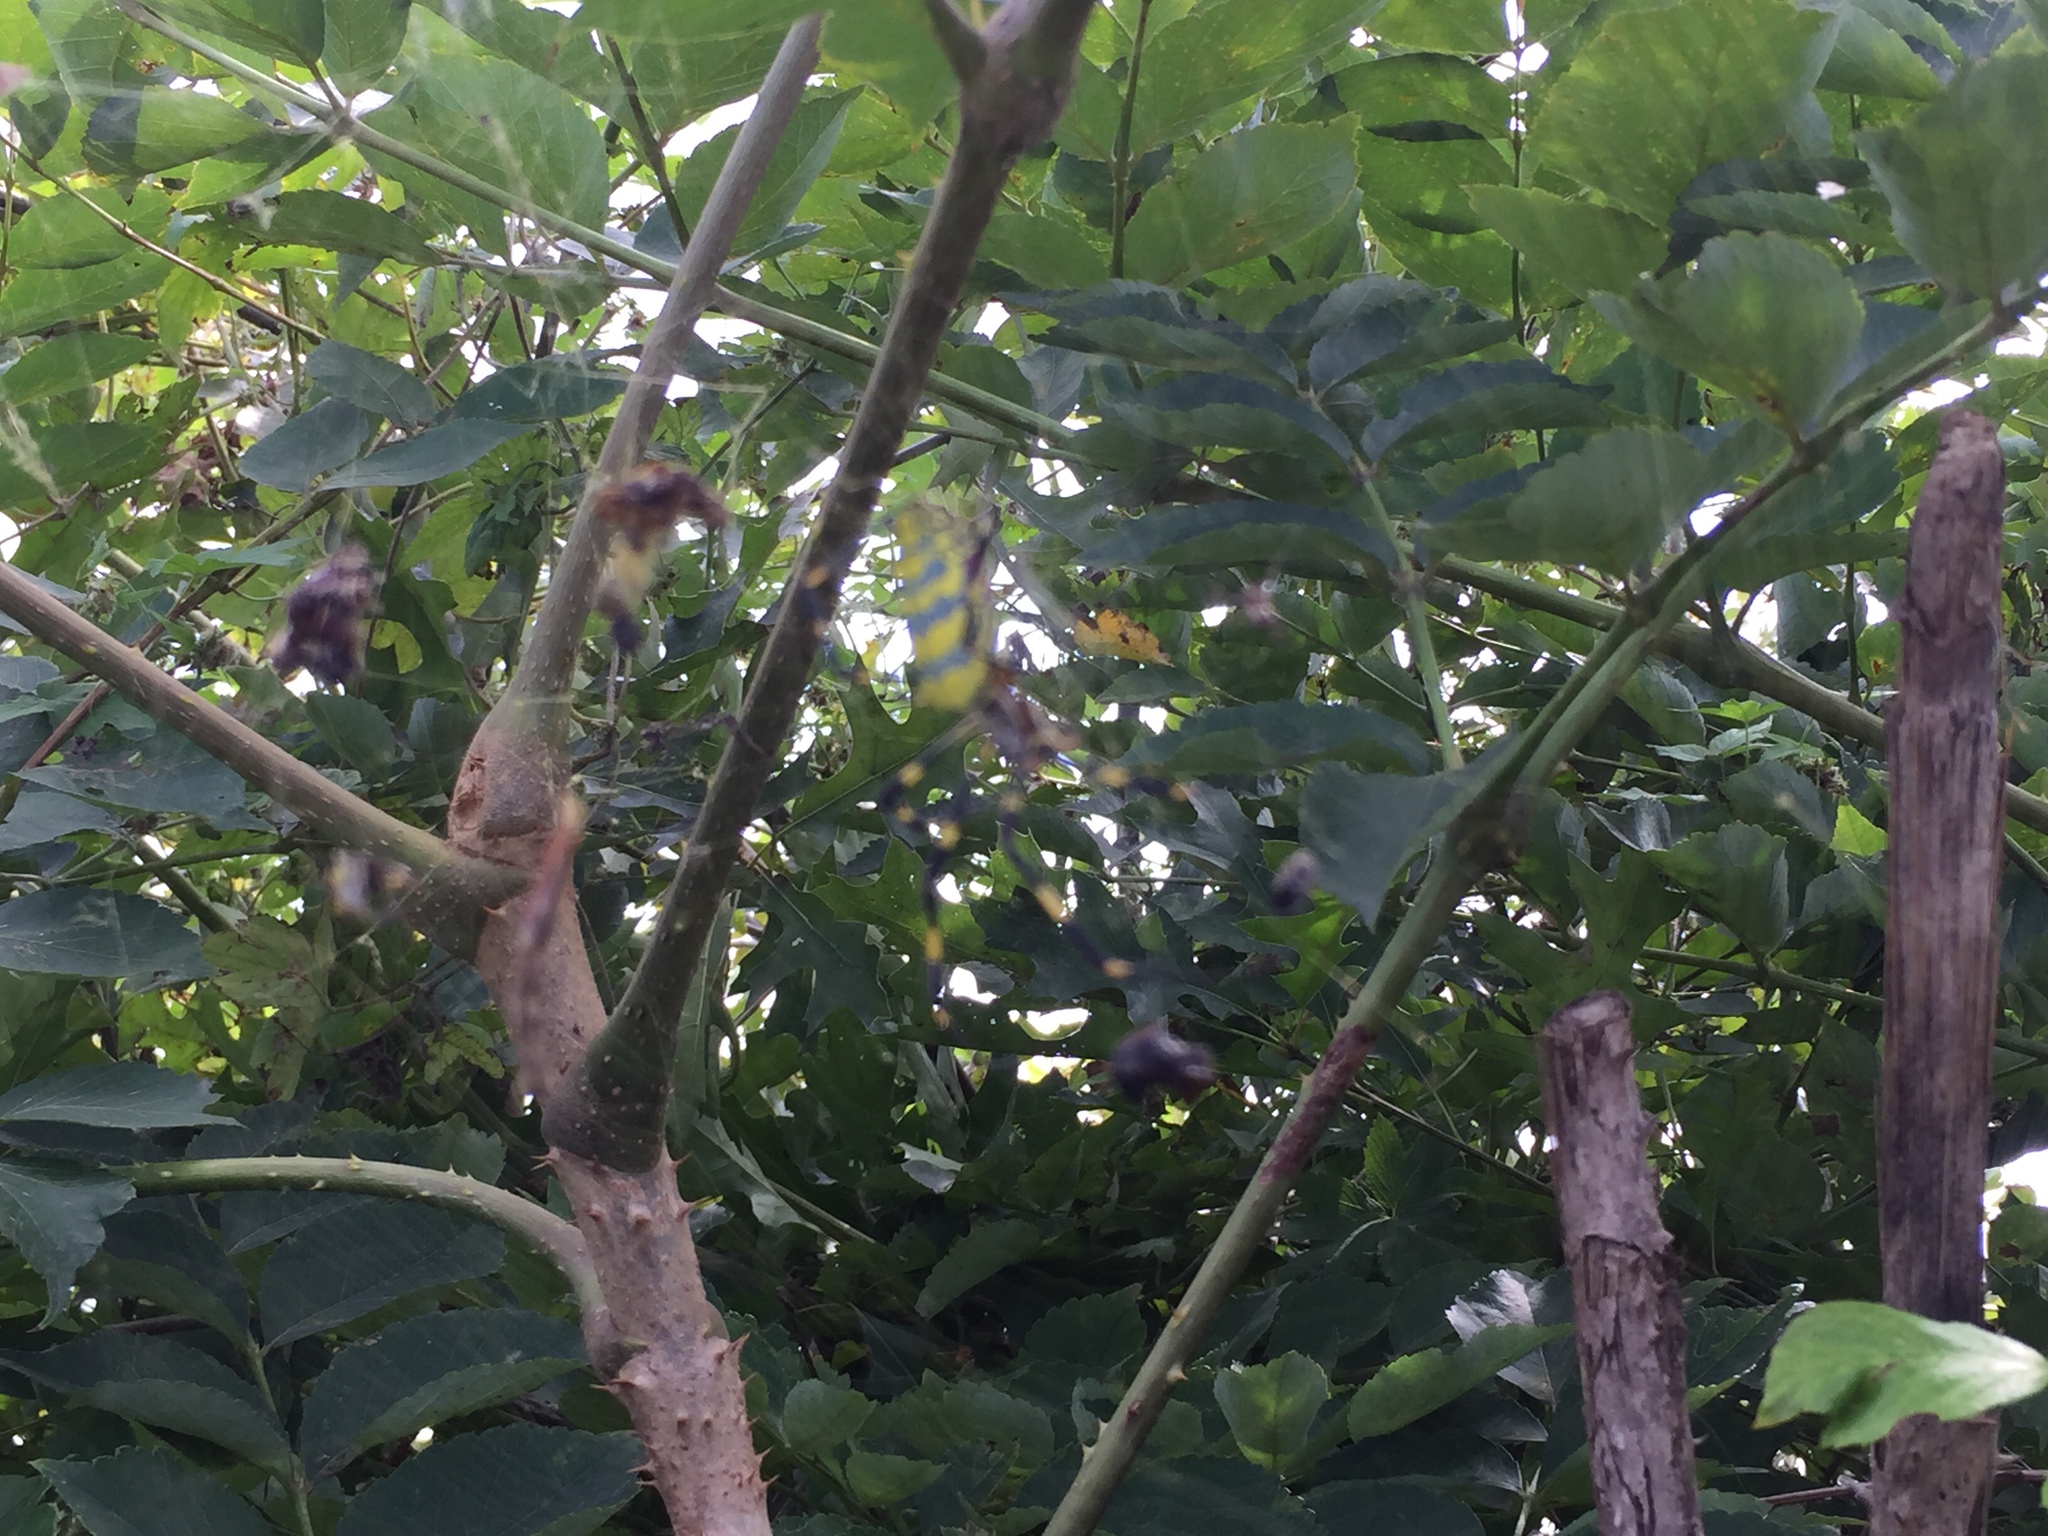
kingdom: Animalia
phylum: Arthropoda
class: Arachnida
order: Araneae
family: Araneidae
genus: Trichonephila
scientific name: Trichonephila clavata
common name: Jorō spider
